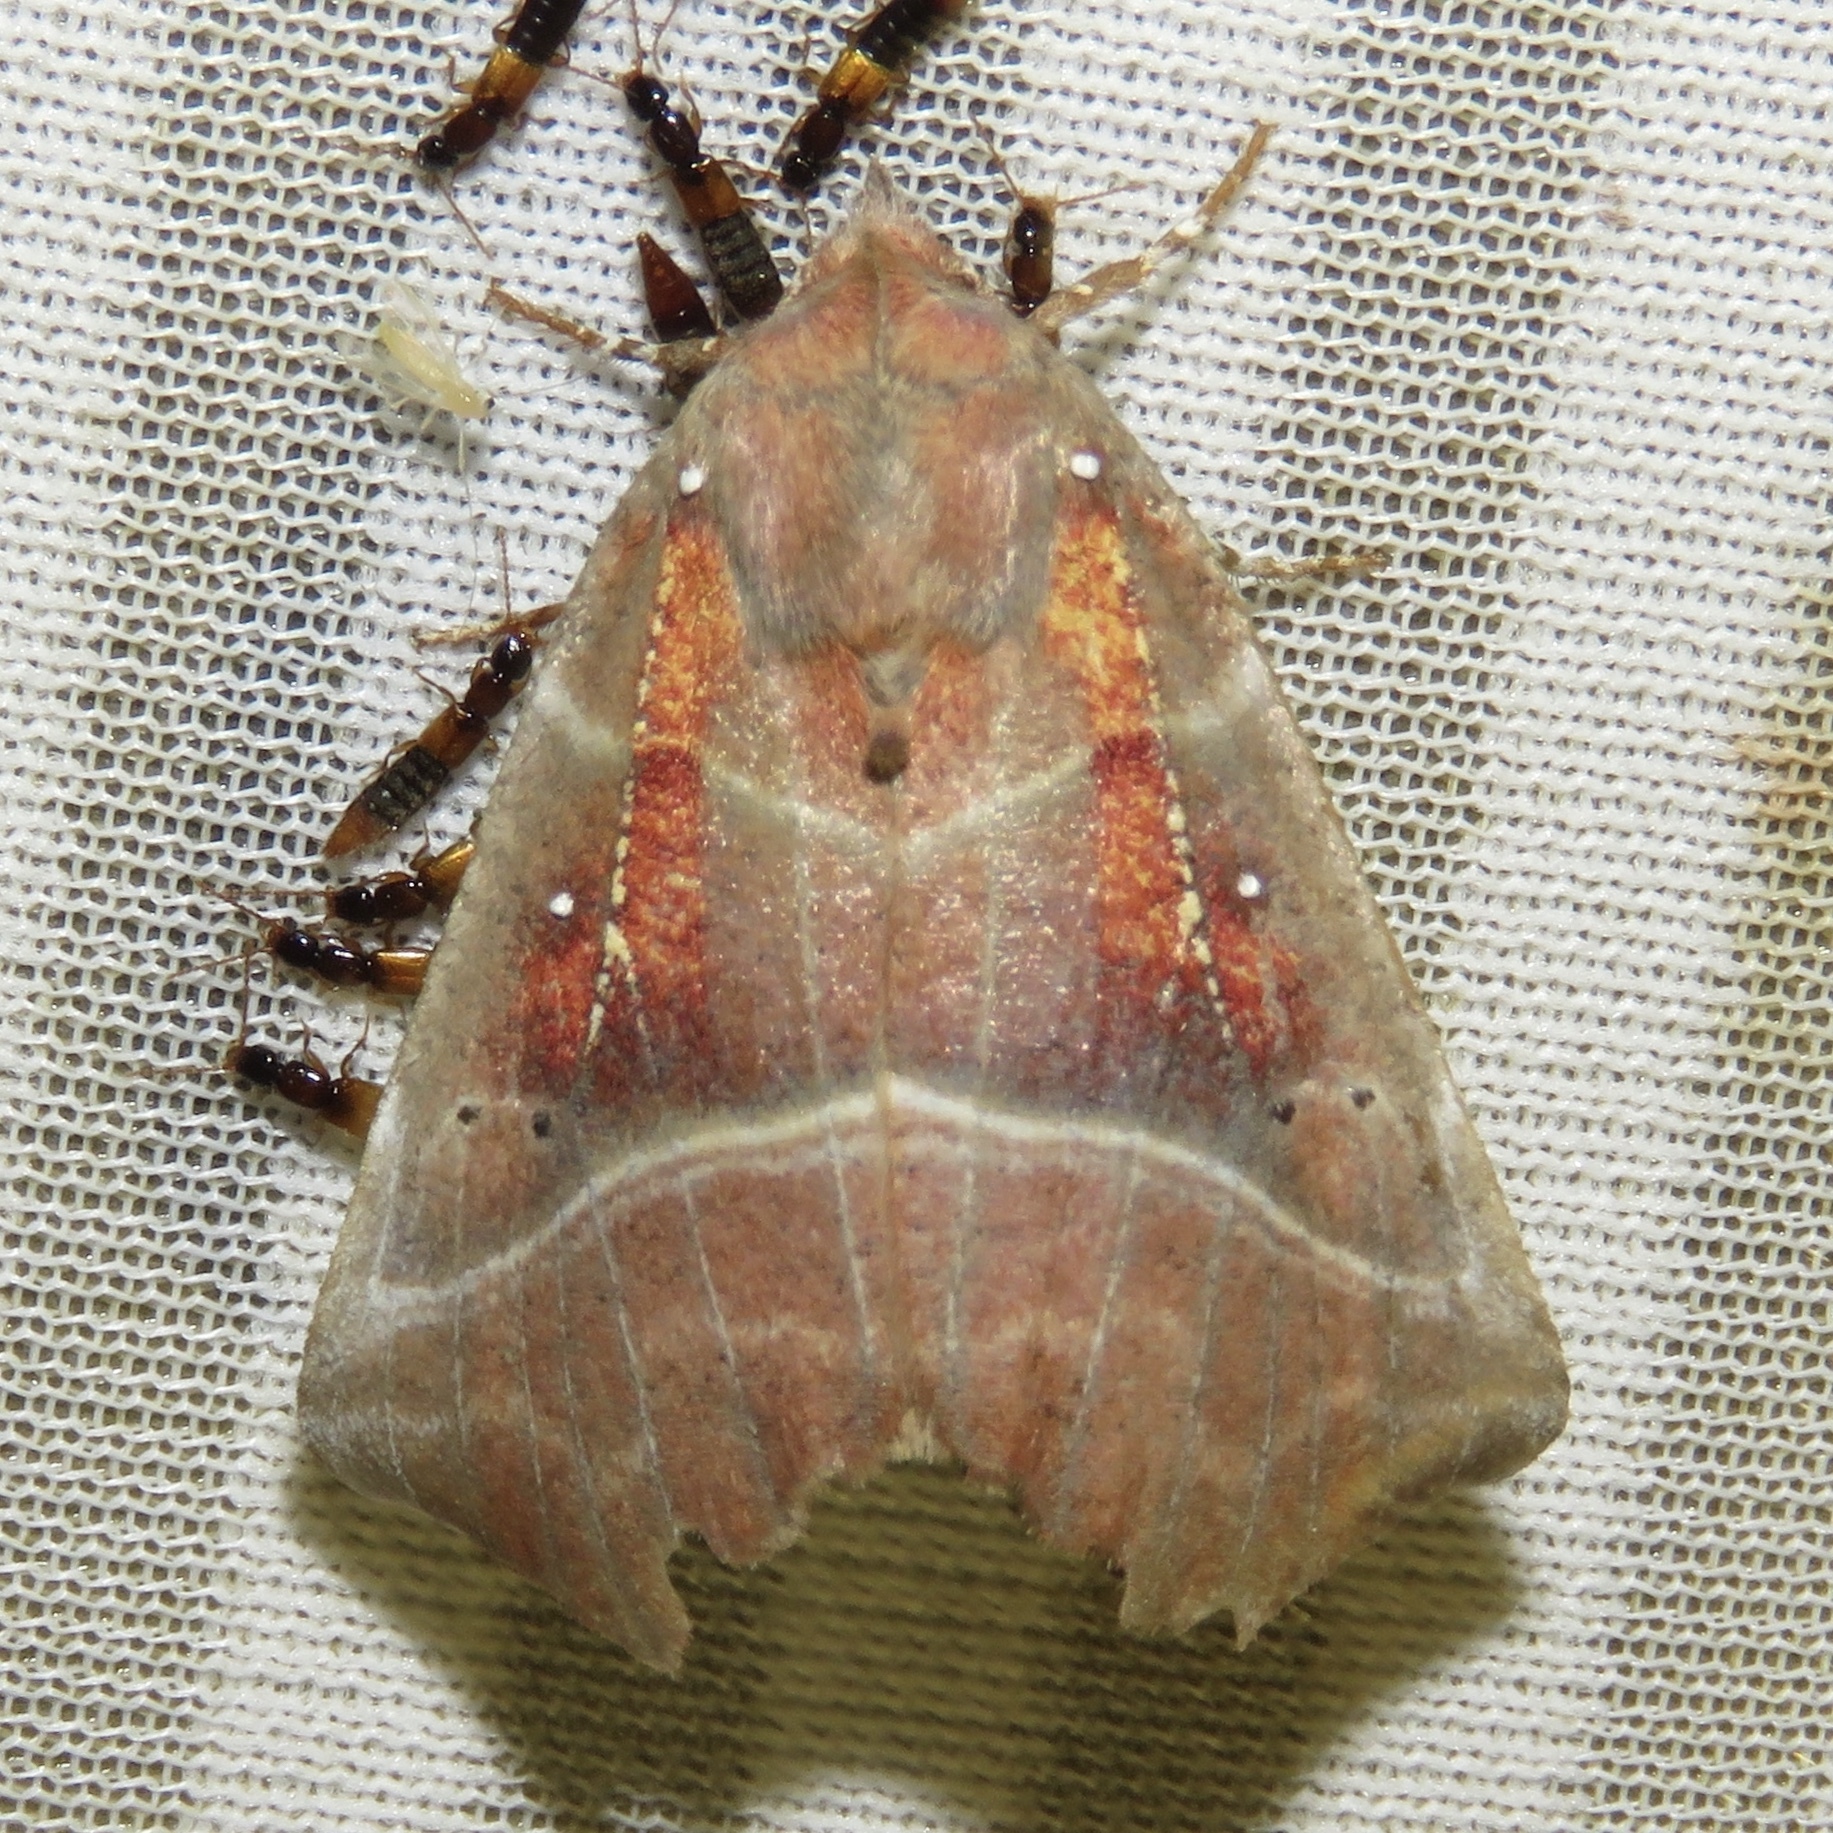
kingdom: Animalia
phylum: Arthropoda
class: Insecta
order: Lepidoptera
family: Erebidae
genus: Scoliopteryx
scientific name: Scoliopteryx libatrix
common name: Herald
